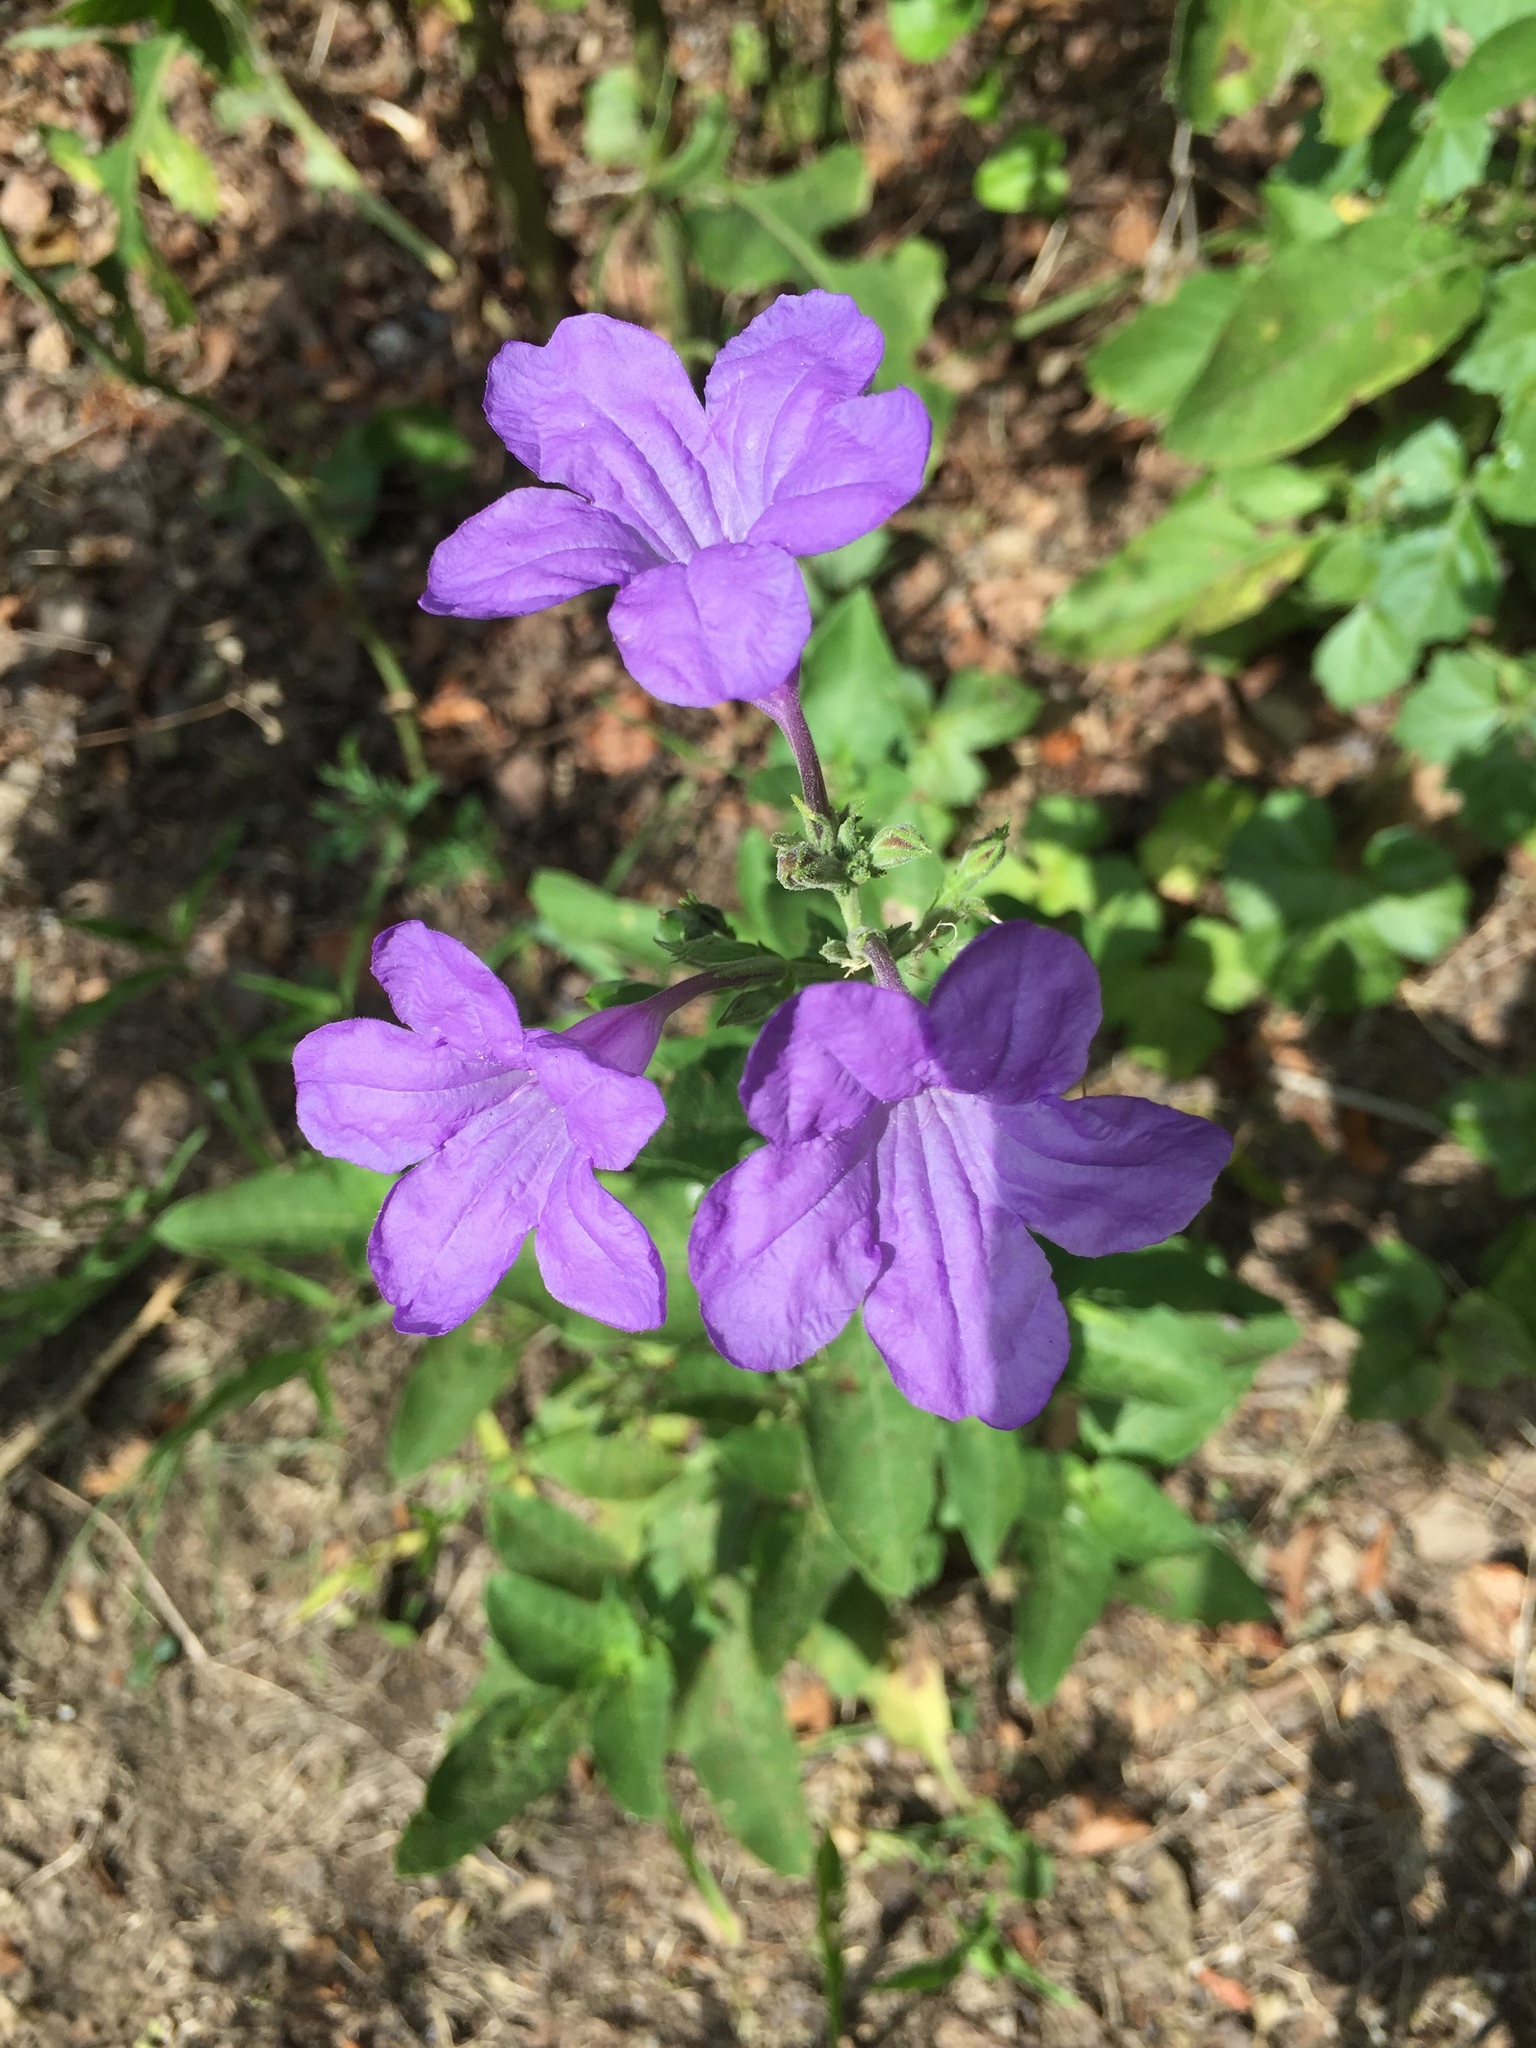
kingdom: Plantae
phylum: Tracheophyta
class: Magnoliopsida
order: Lamiales
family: Acanthaceae
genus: Ruellia
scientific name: Ruellia ciliatiflora
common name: Hairyflower wild petunia
